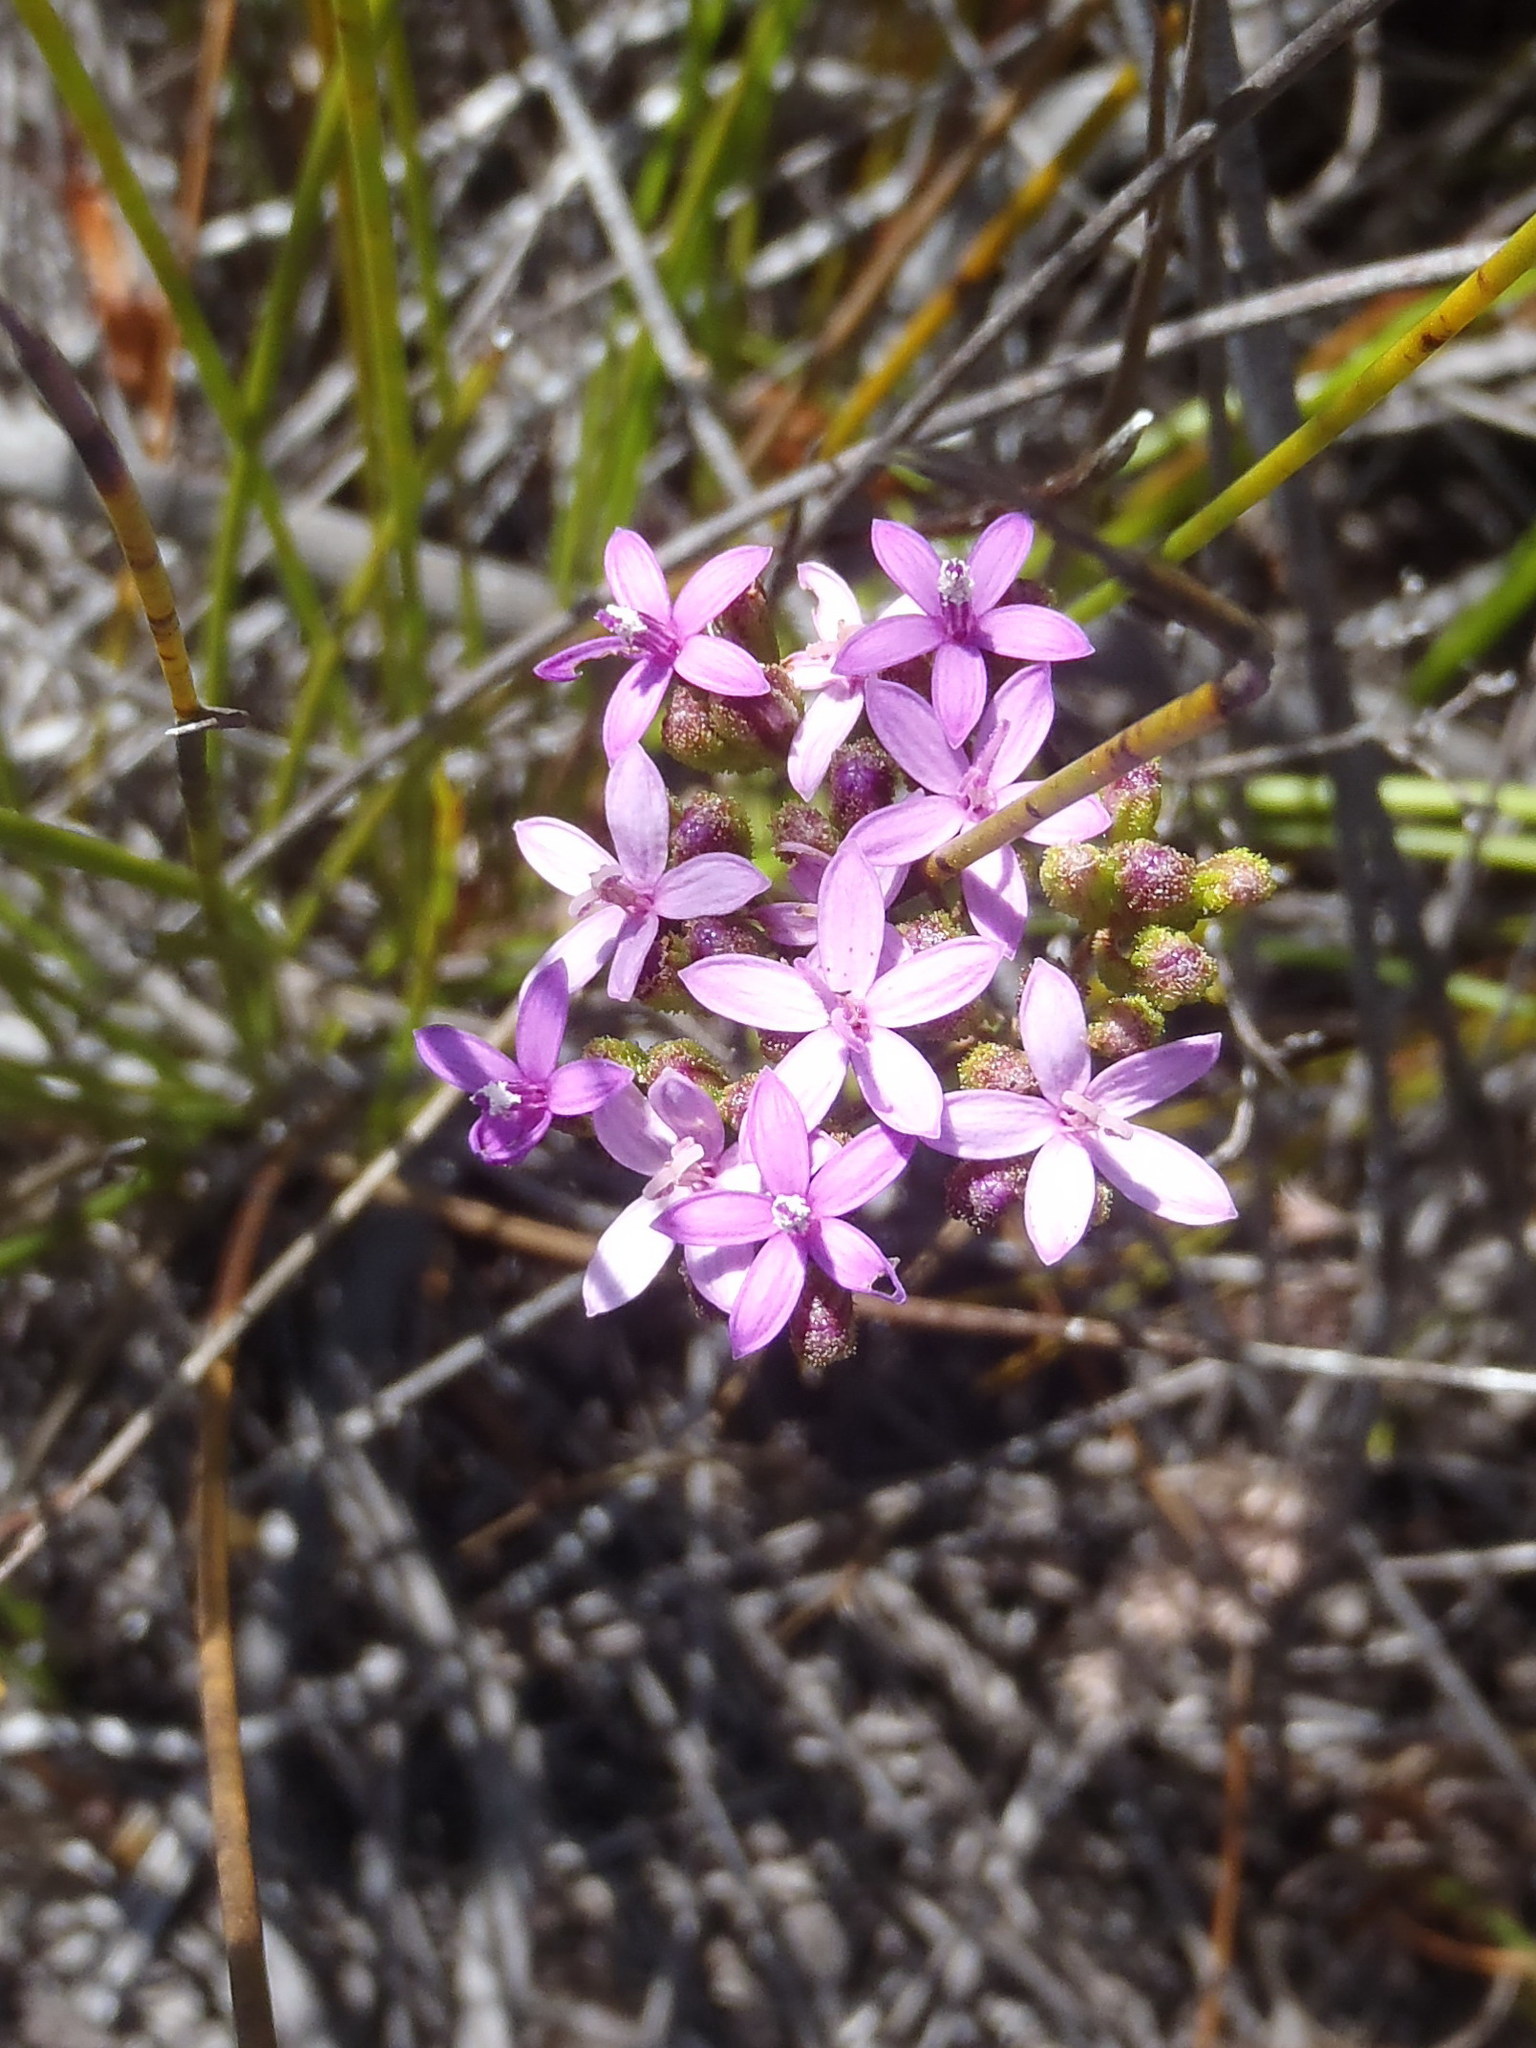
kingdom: Plantae
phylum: Tracheophyta
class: Magnoliopsida
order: Asterales
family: Asteraceae
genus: Corymbium
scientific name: Corymbium africanum
